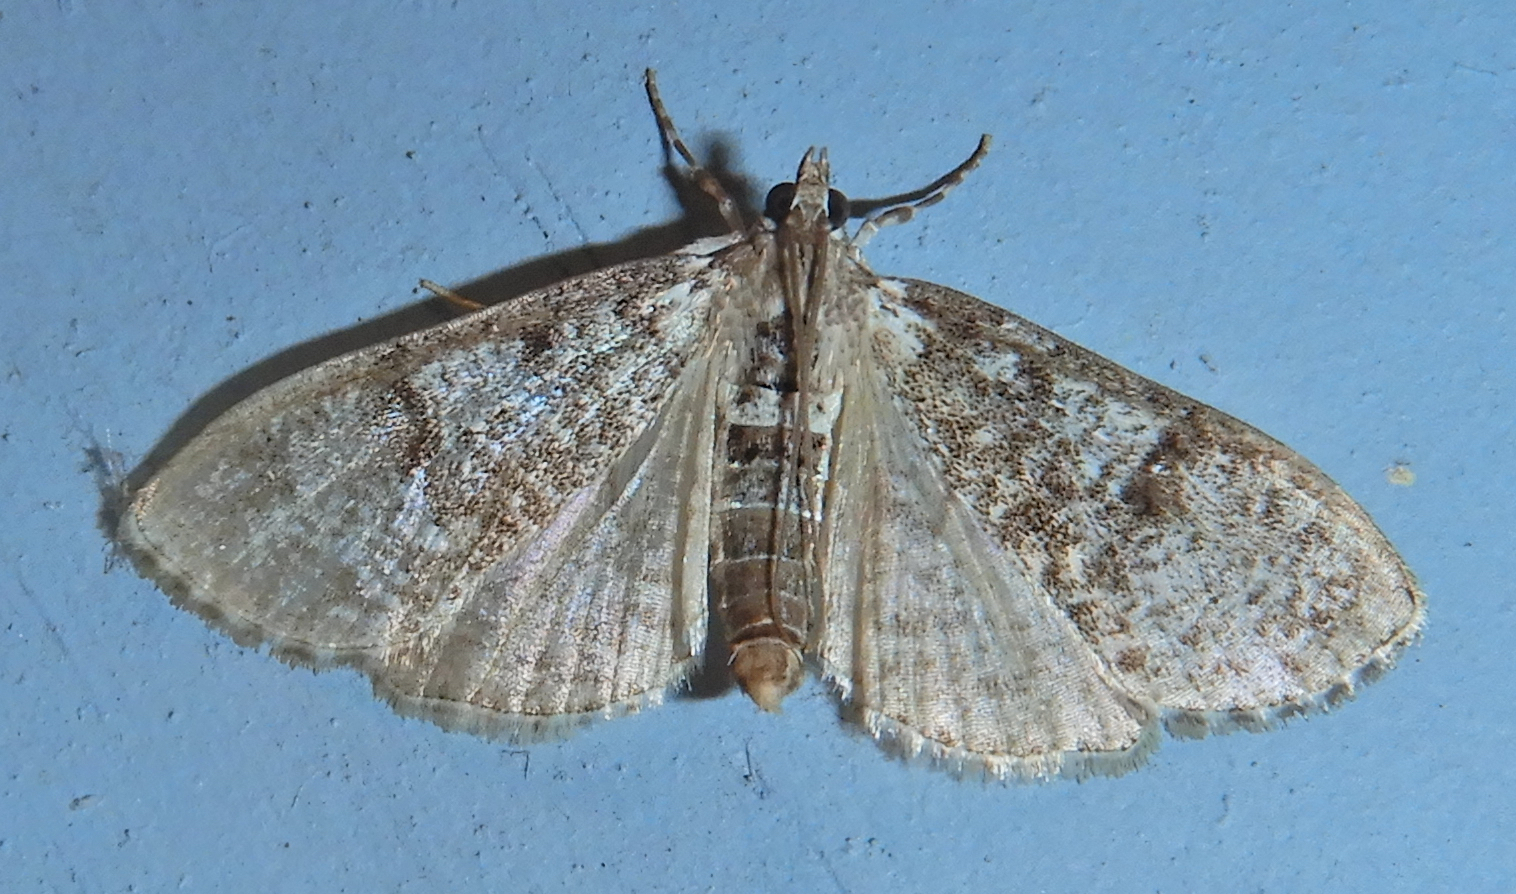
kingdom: Animalia
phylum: Arthropoda
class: Insecta
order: Lepidoptera
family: Crambidae
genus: Palpita
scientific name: Palpita magniferalis
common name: Splendid palpita moth
